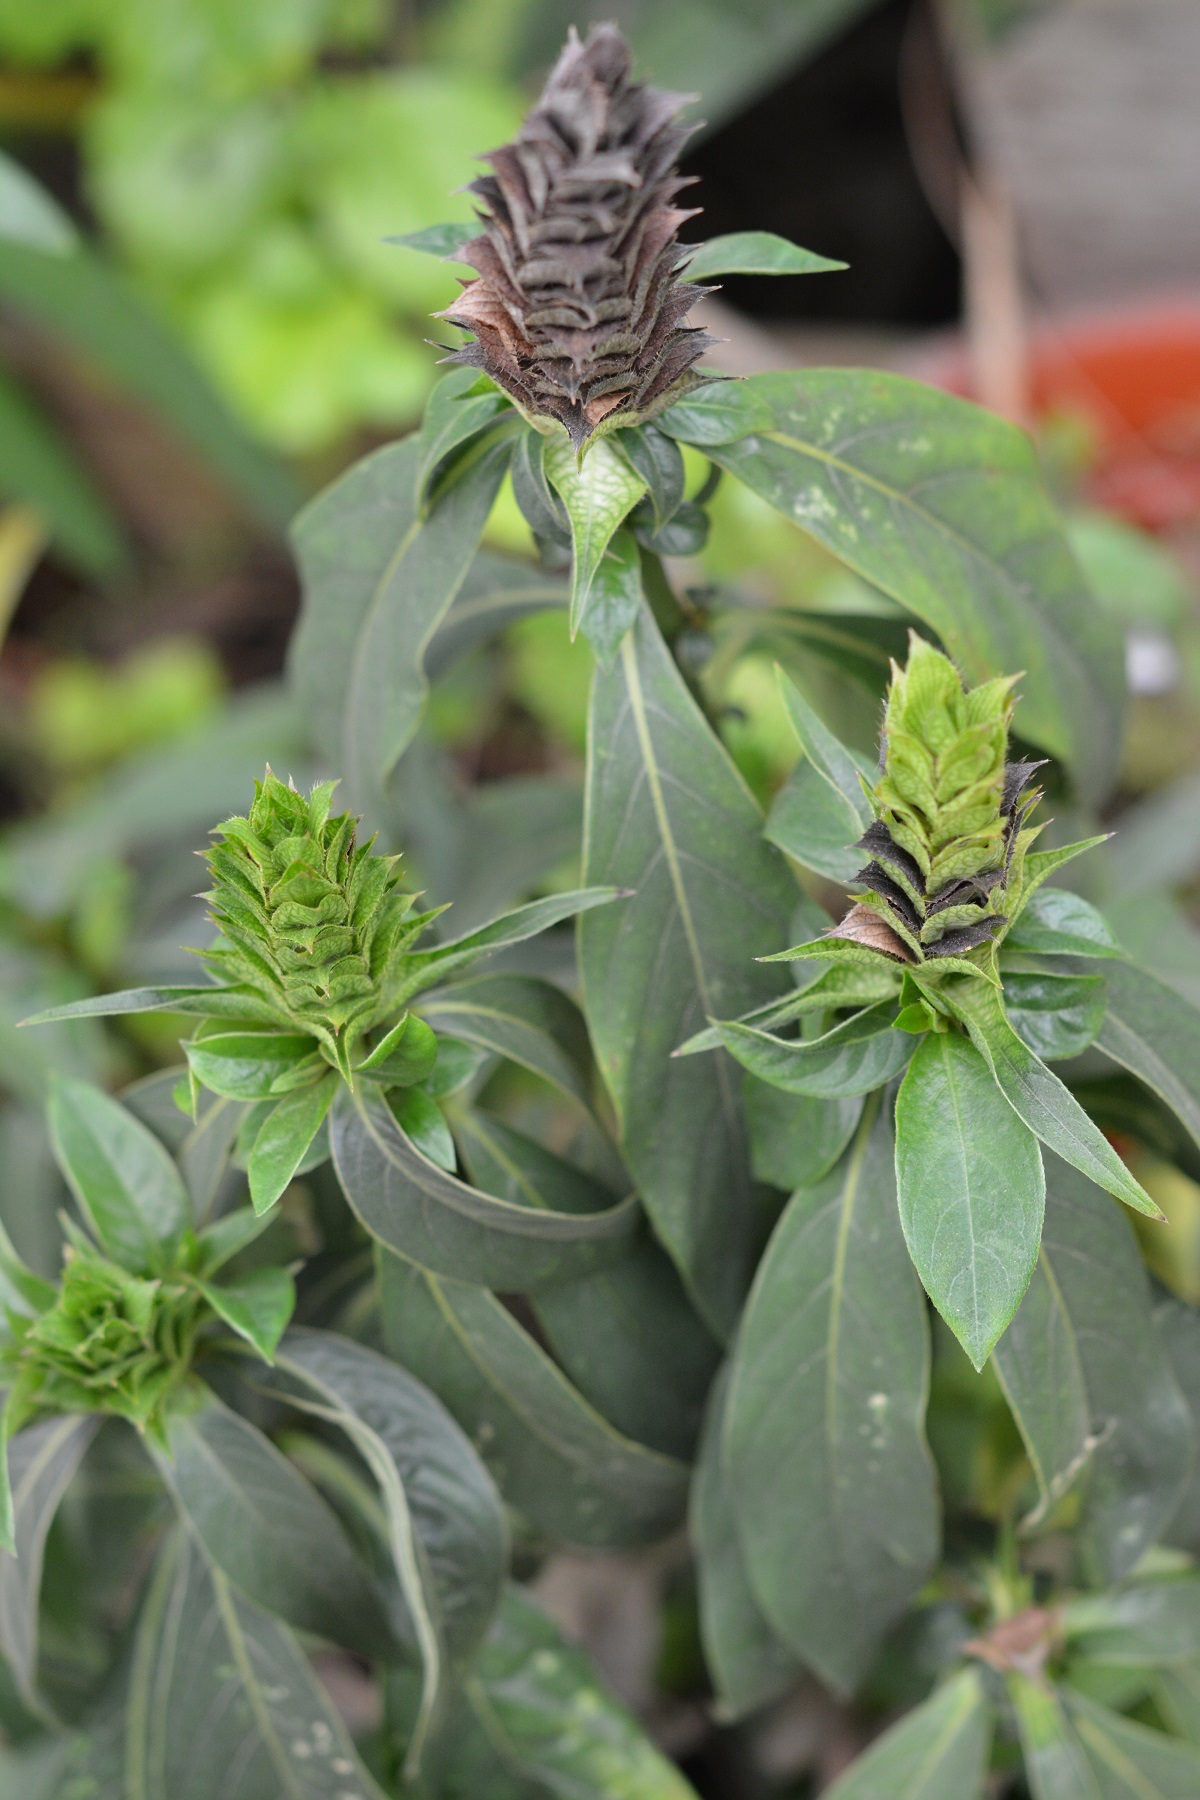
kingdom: Plantae
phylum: Tracheophyta
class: Magnoliopsida
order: Lamiales
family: Acanthaceae
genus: Barleria
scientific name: Barleria oenotheroides
